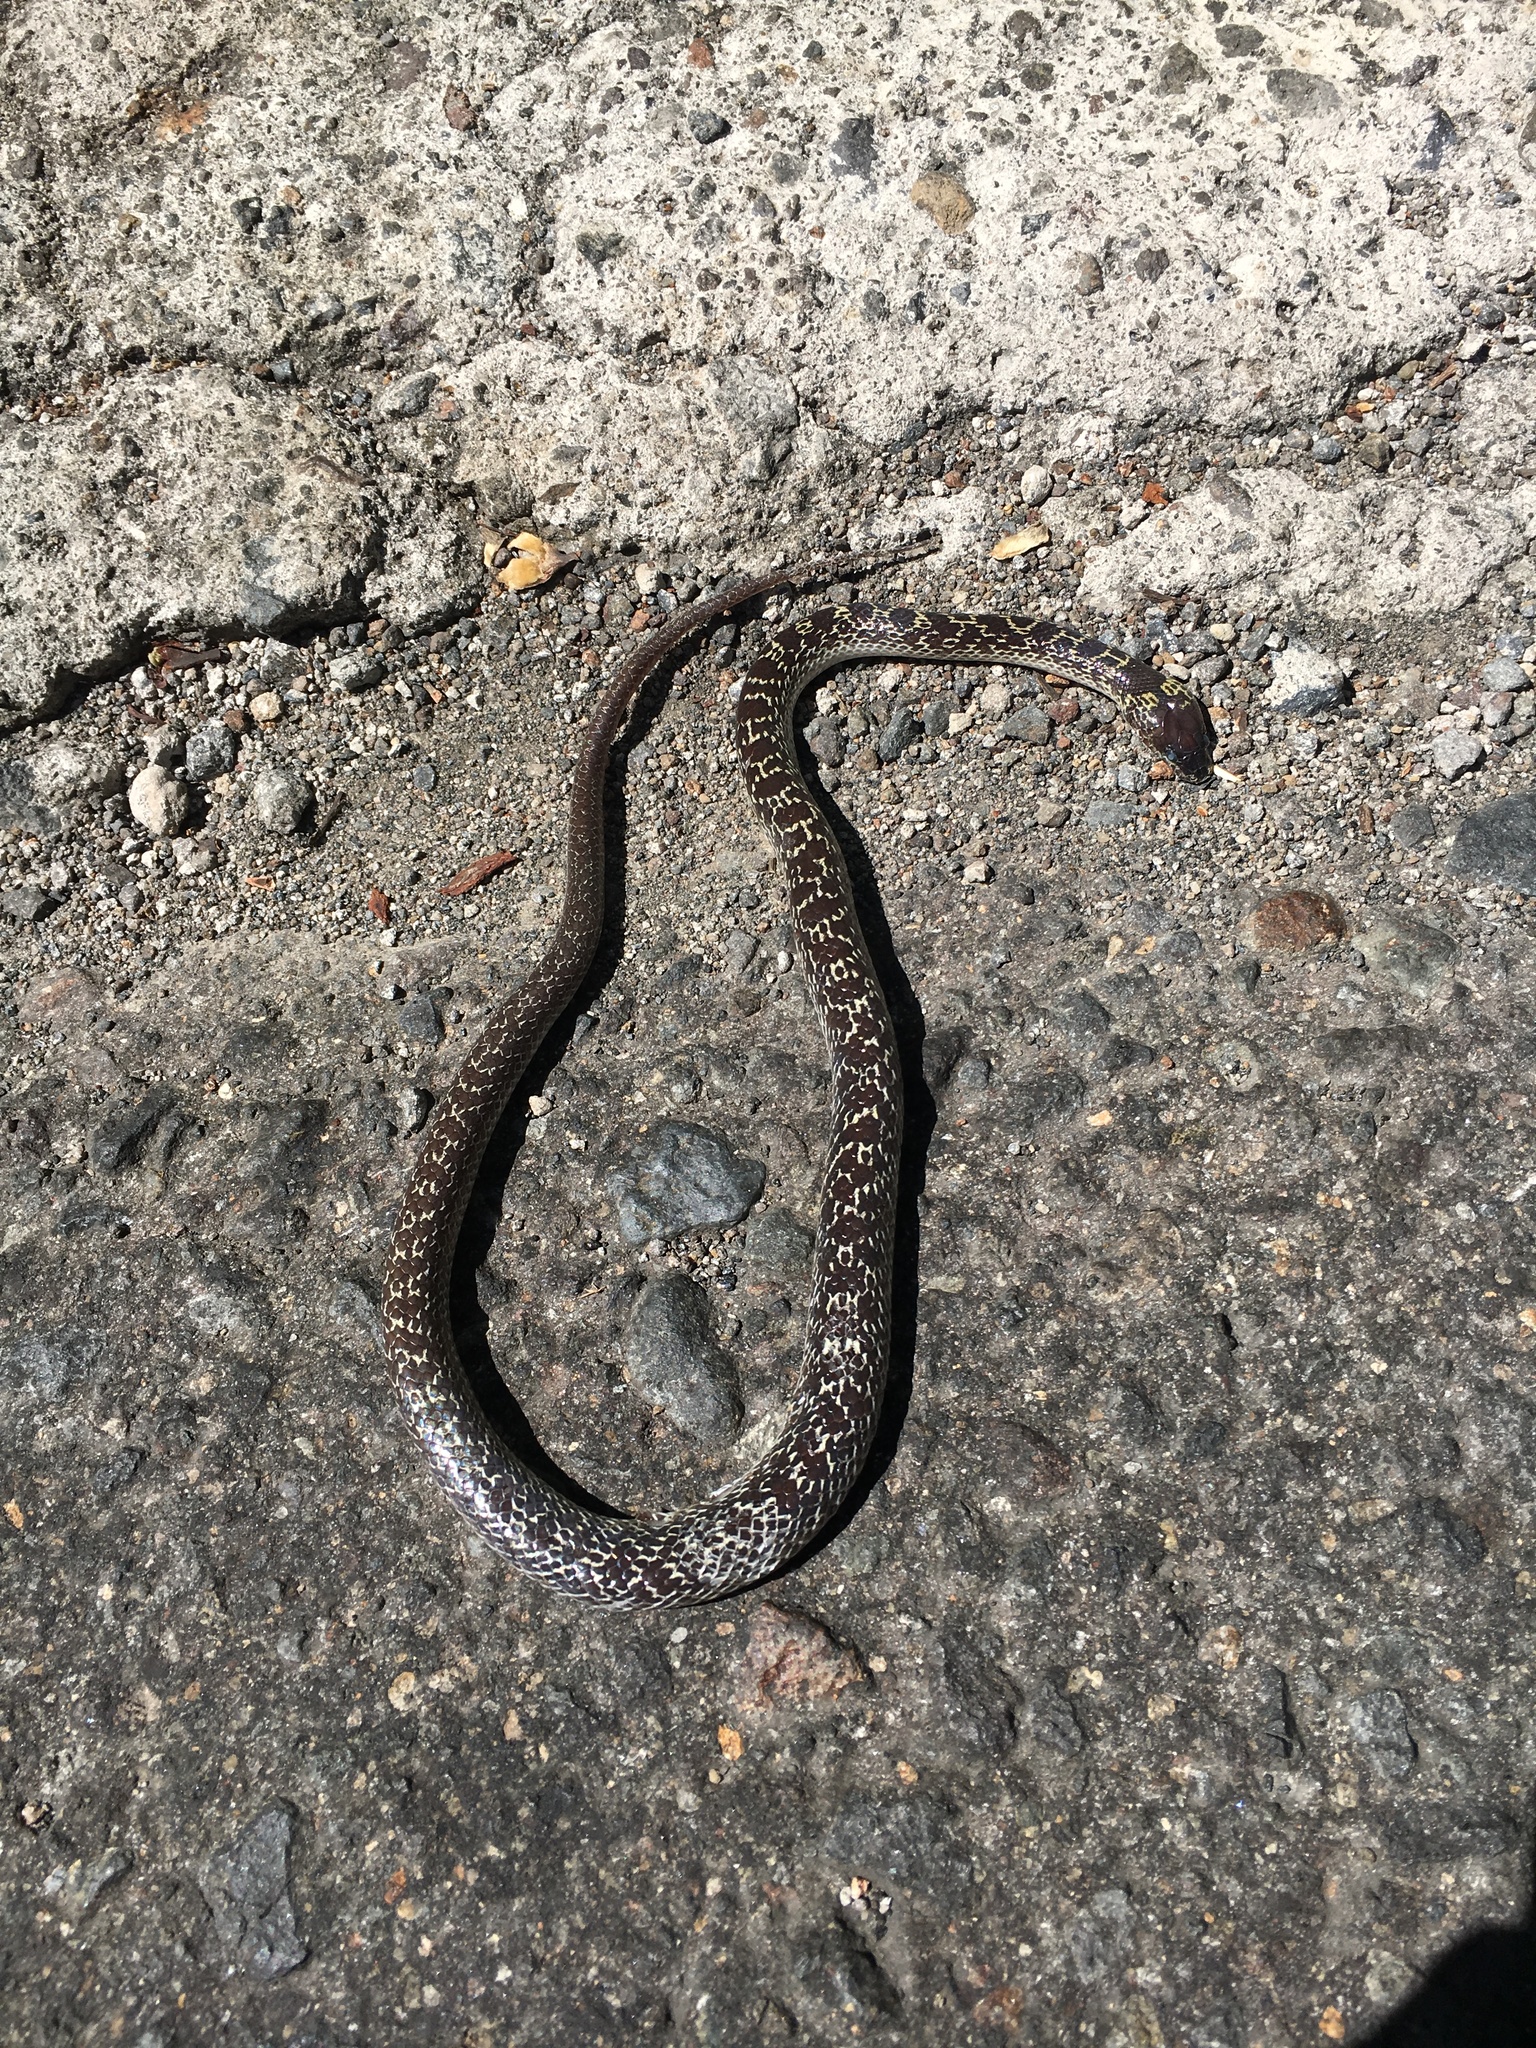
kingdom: Animalia
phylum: Chordata
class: Squamata
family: Colubridae
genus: Lycodon
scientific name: Lycodon capucinus
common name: Common wold snake/house snake
